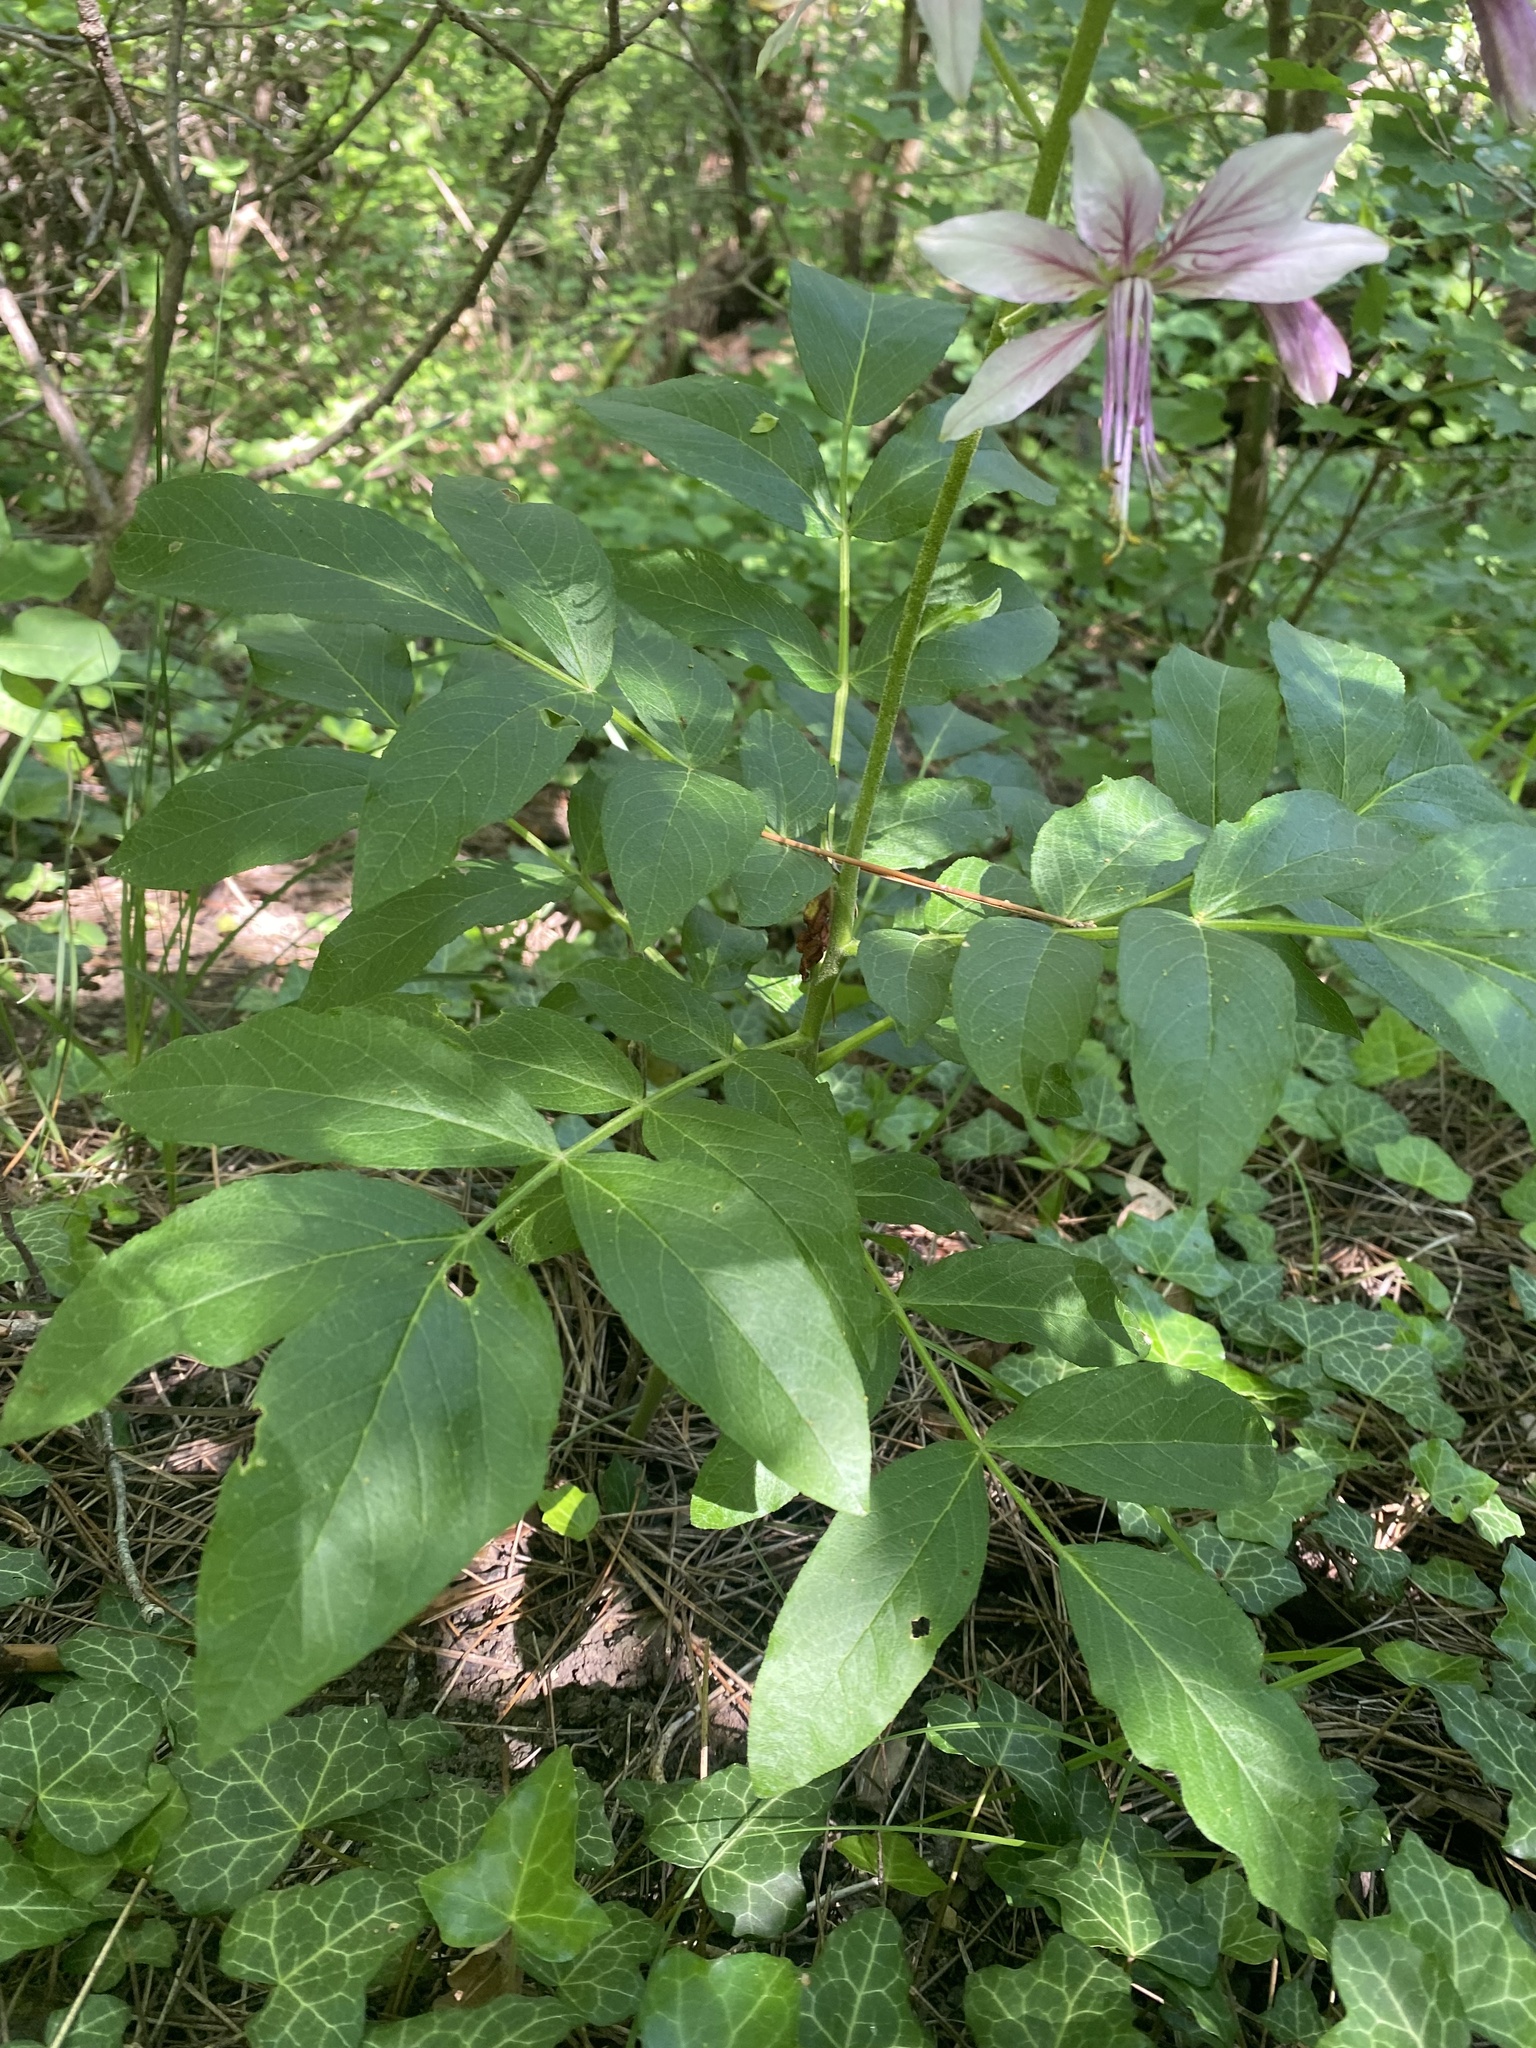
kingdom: Plantae
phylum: Tracheophyta
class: Magnoliopsida
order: Sapindales
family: Rutaceae
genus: Dictamnus
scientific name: Dictamnus albus
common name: Gasplant
